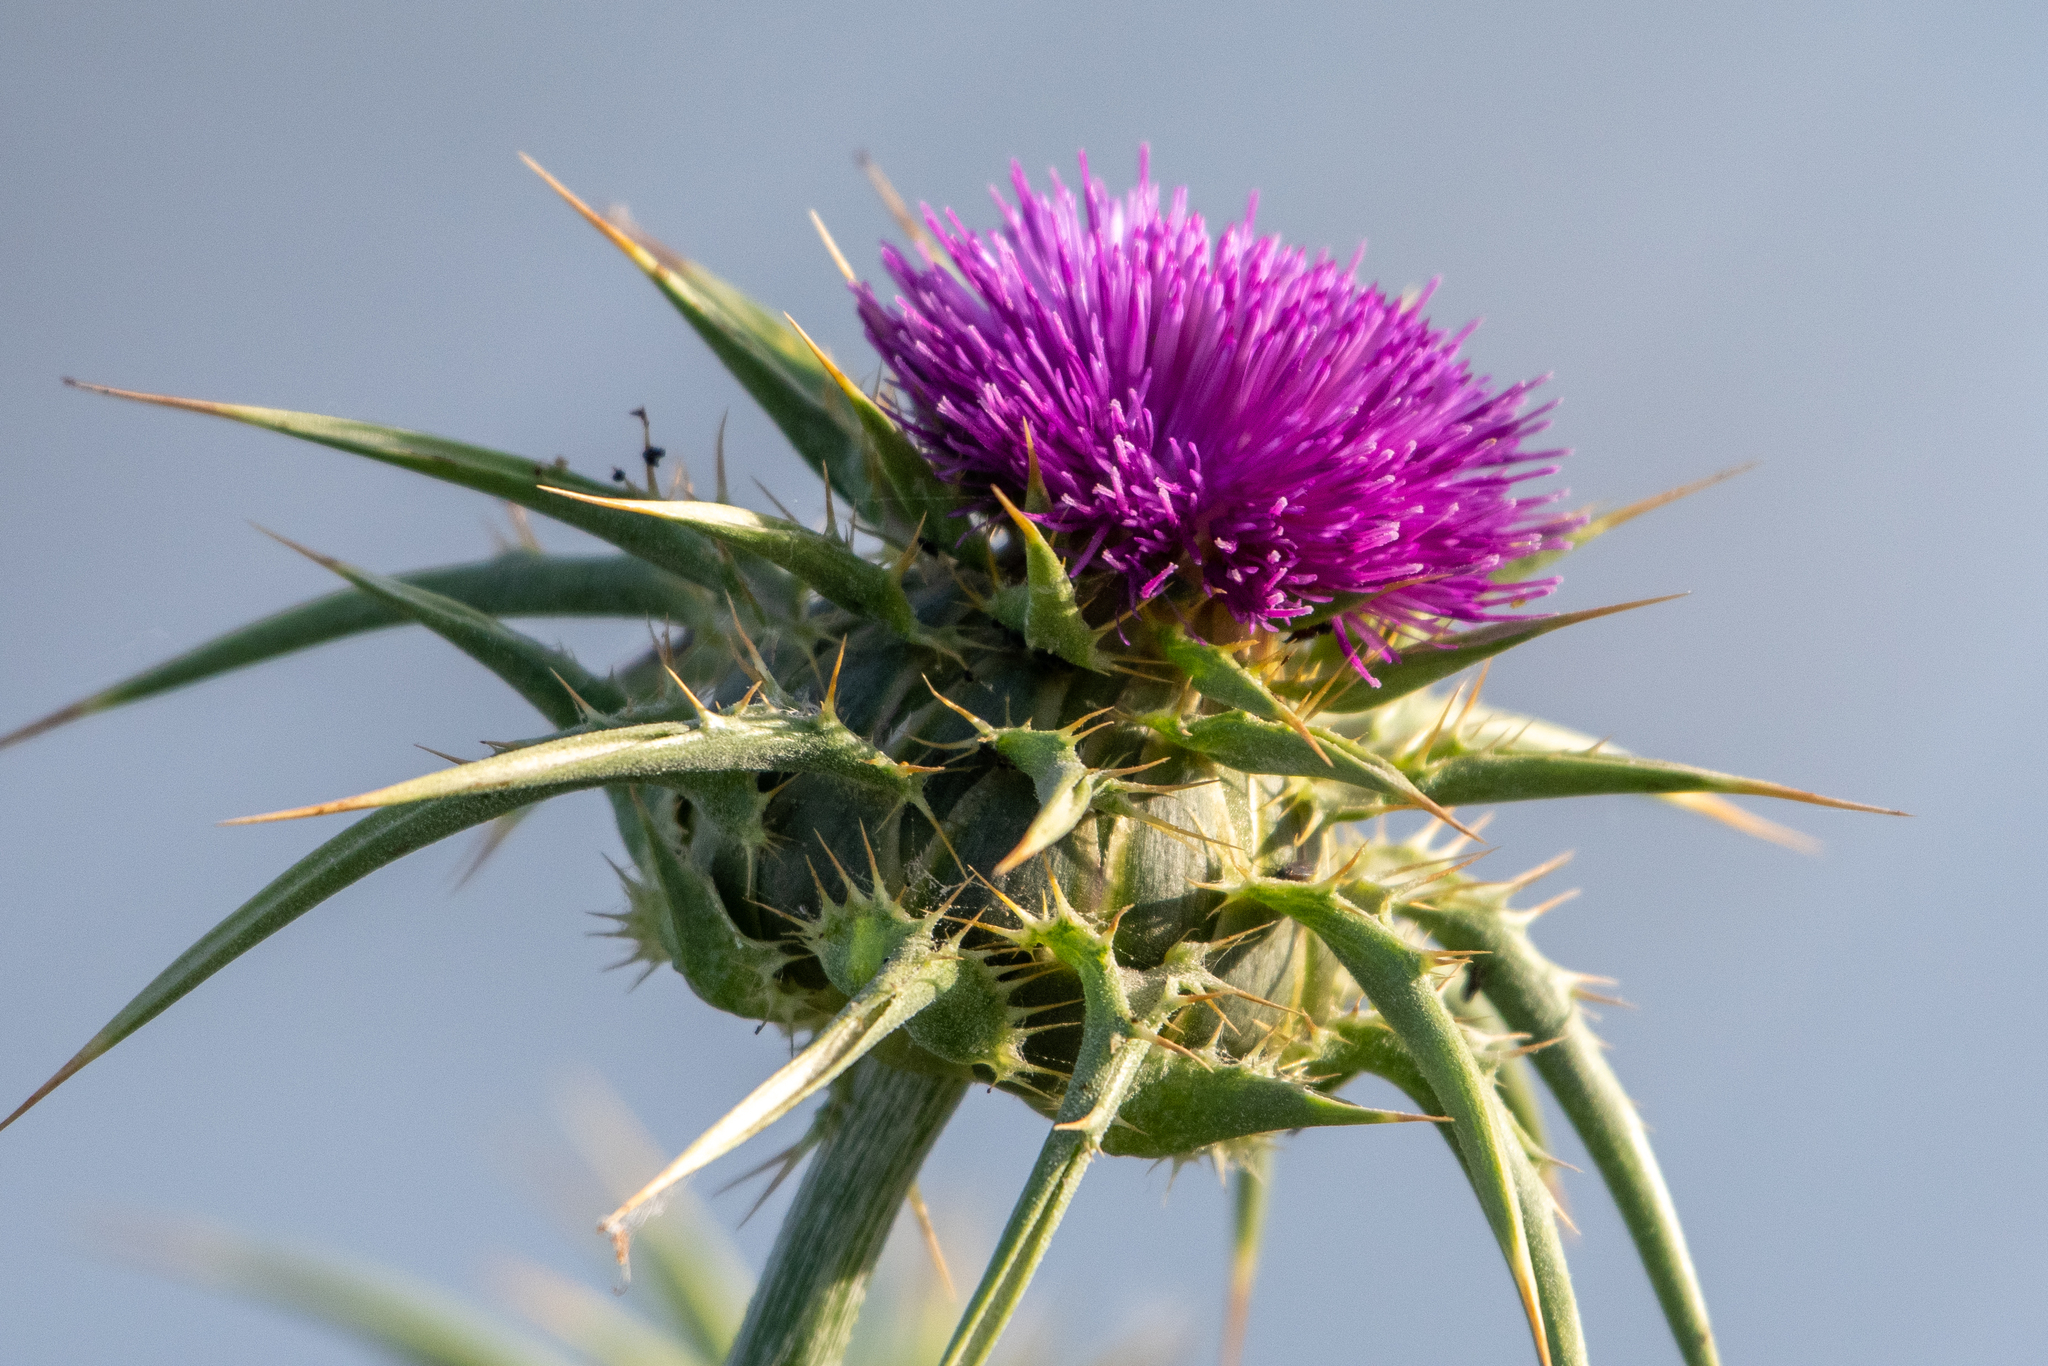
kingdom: Plantae
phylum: Tracheophyta
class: Magnoliopsida
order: Asterales
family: Asteraceae
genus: Silybum
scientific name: Silybum marianum
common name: Milk thistle
